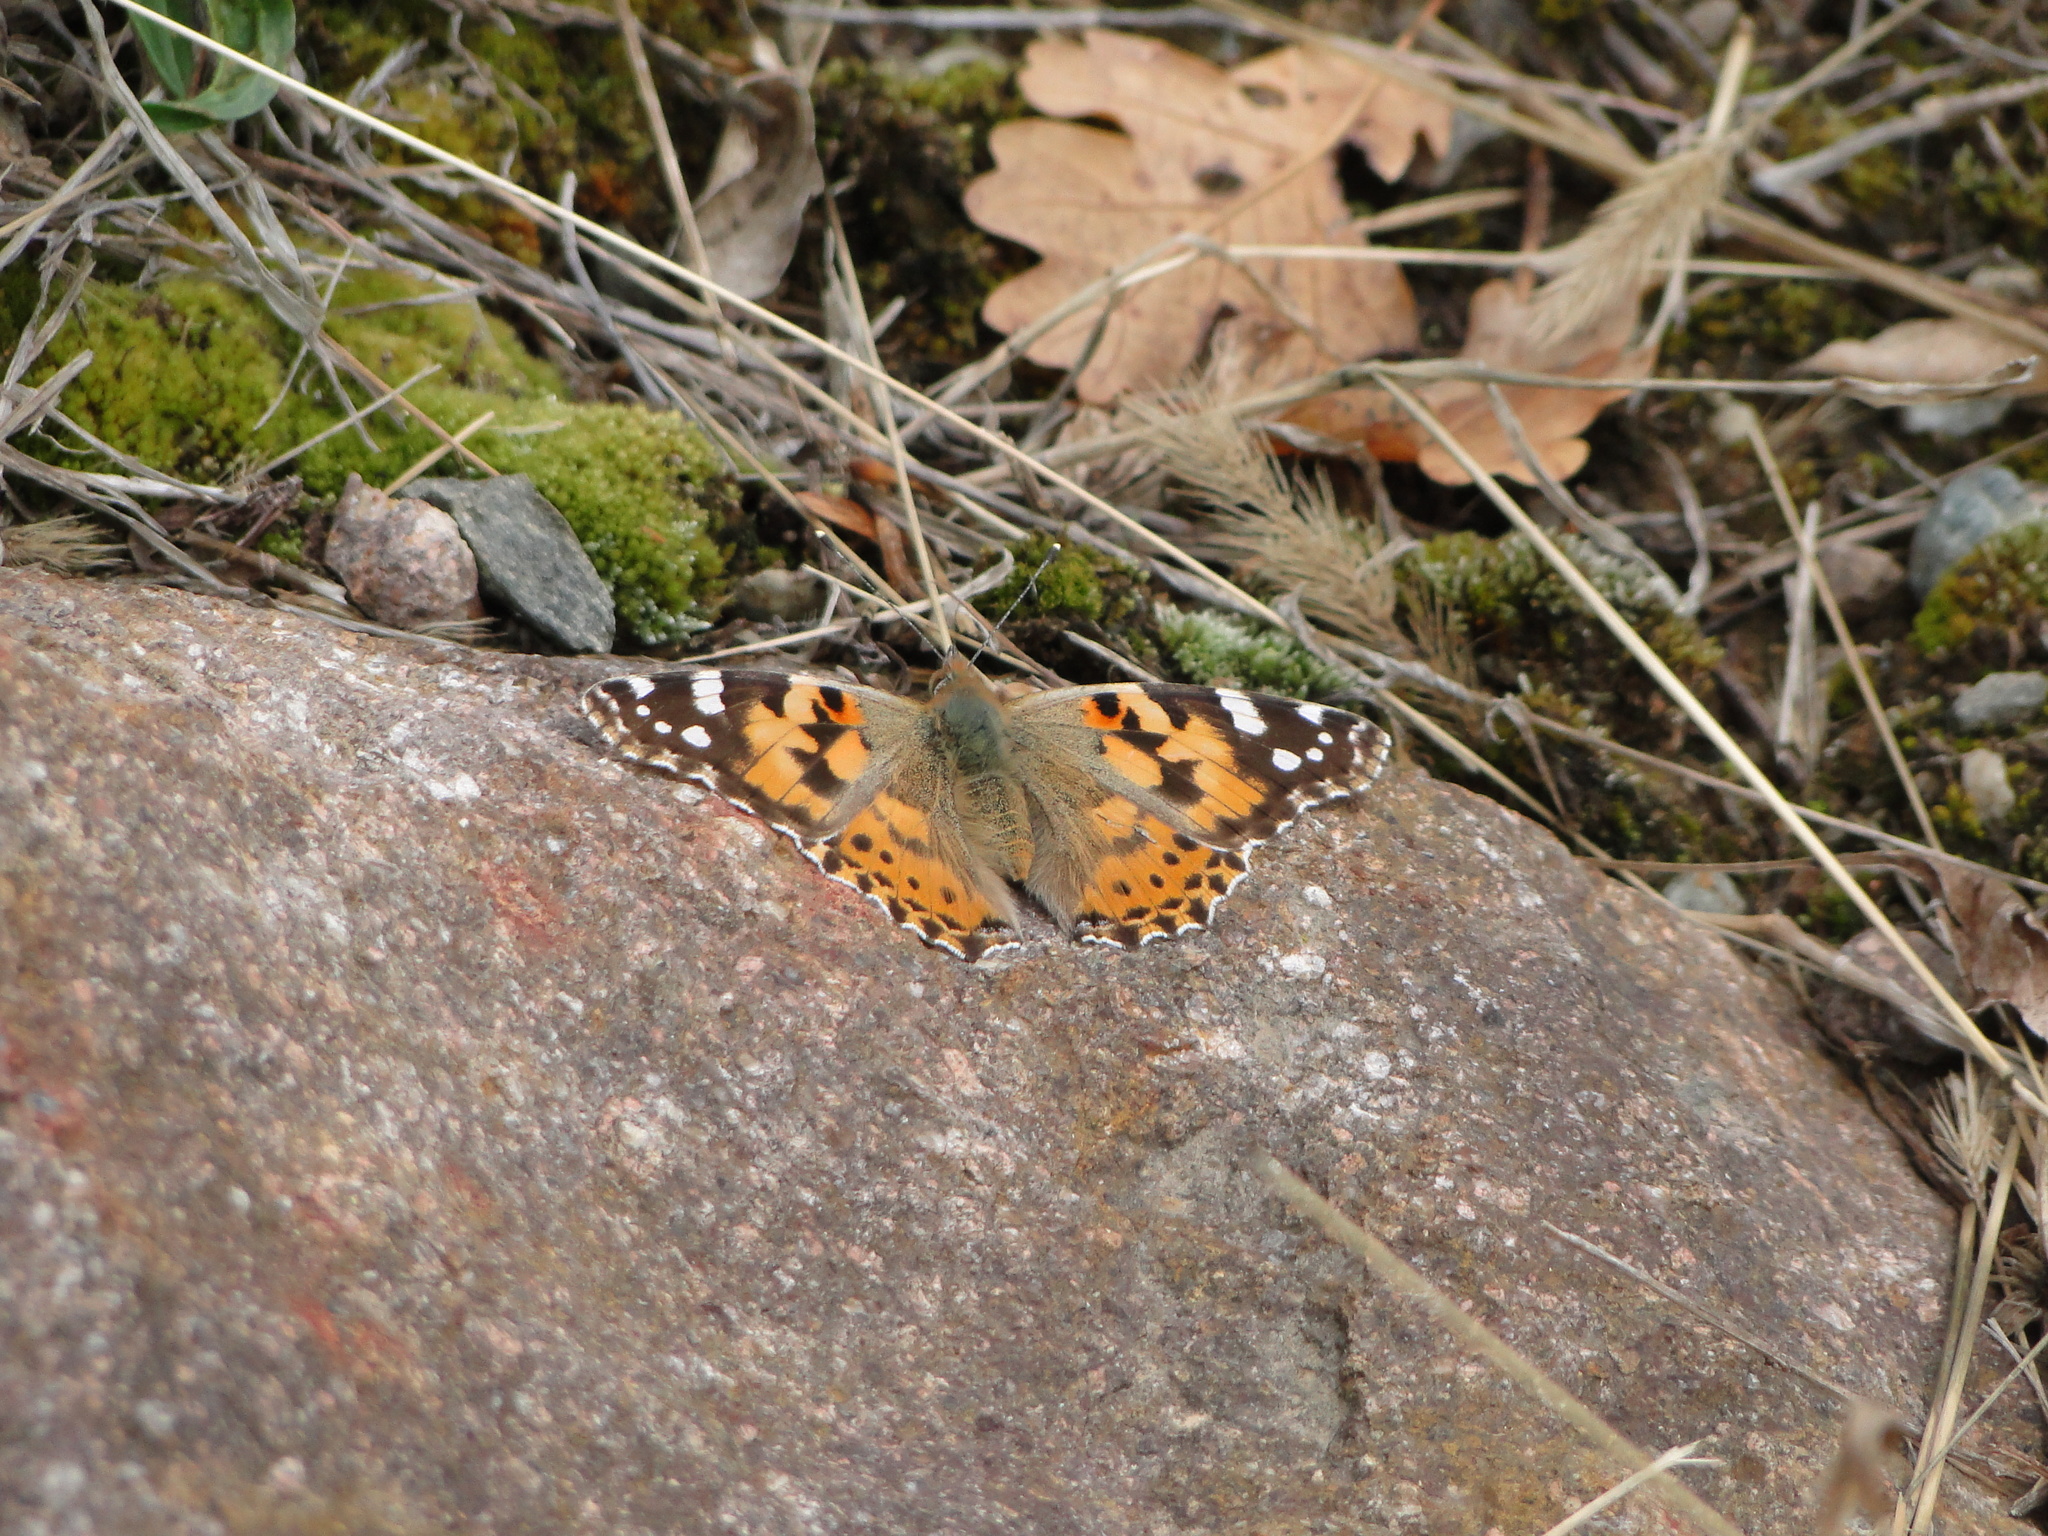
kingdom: Animalia
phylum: Arthropoda
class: Insecta
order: Lepidoptera
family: Nymphalidae
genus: Vanessa
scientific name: Vanessa cardui
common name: Painted lady
